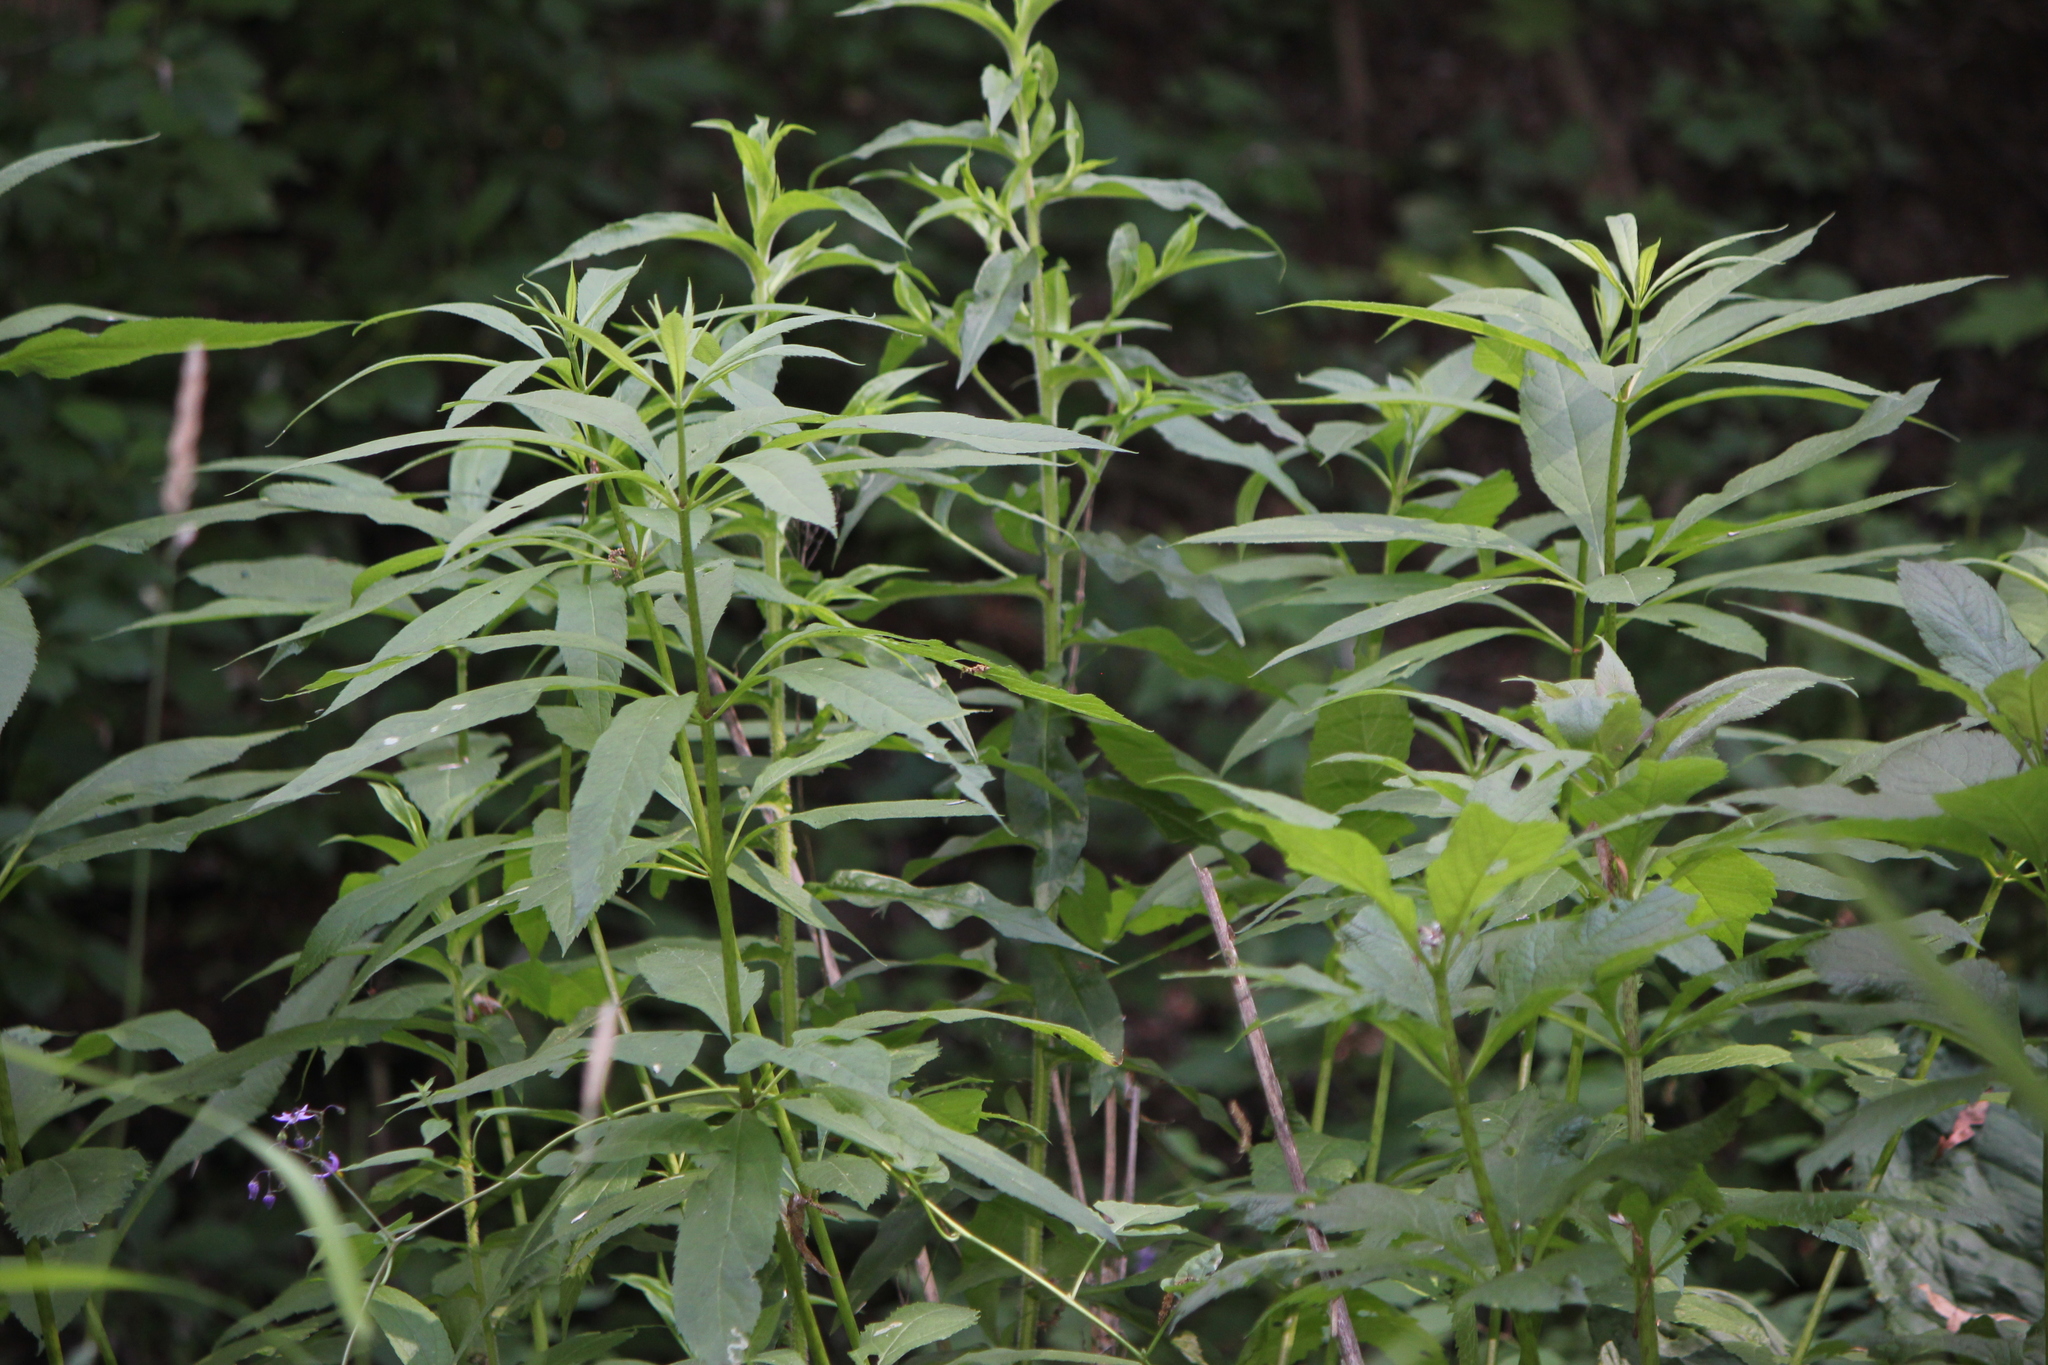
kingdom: Plantae
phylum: Tracheophyta
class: Magnoliopsida
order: Asterales
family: Asteraceae
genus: Eutrochium
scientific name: Eutrochium maculatum
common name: Spotted joe pye weed
